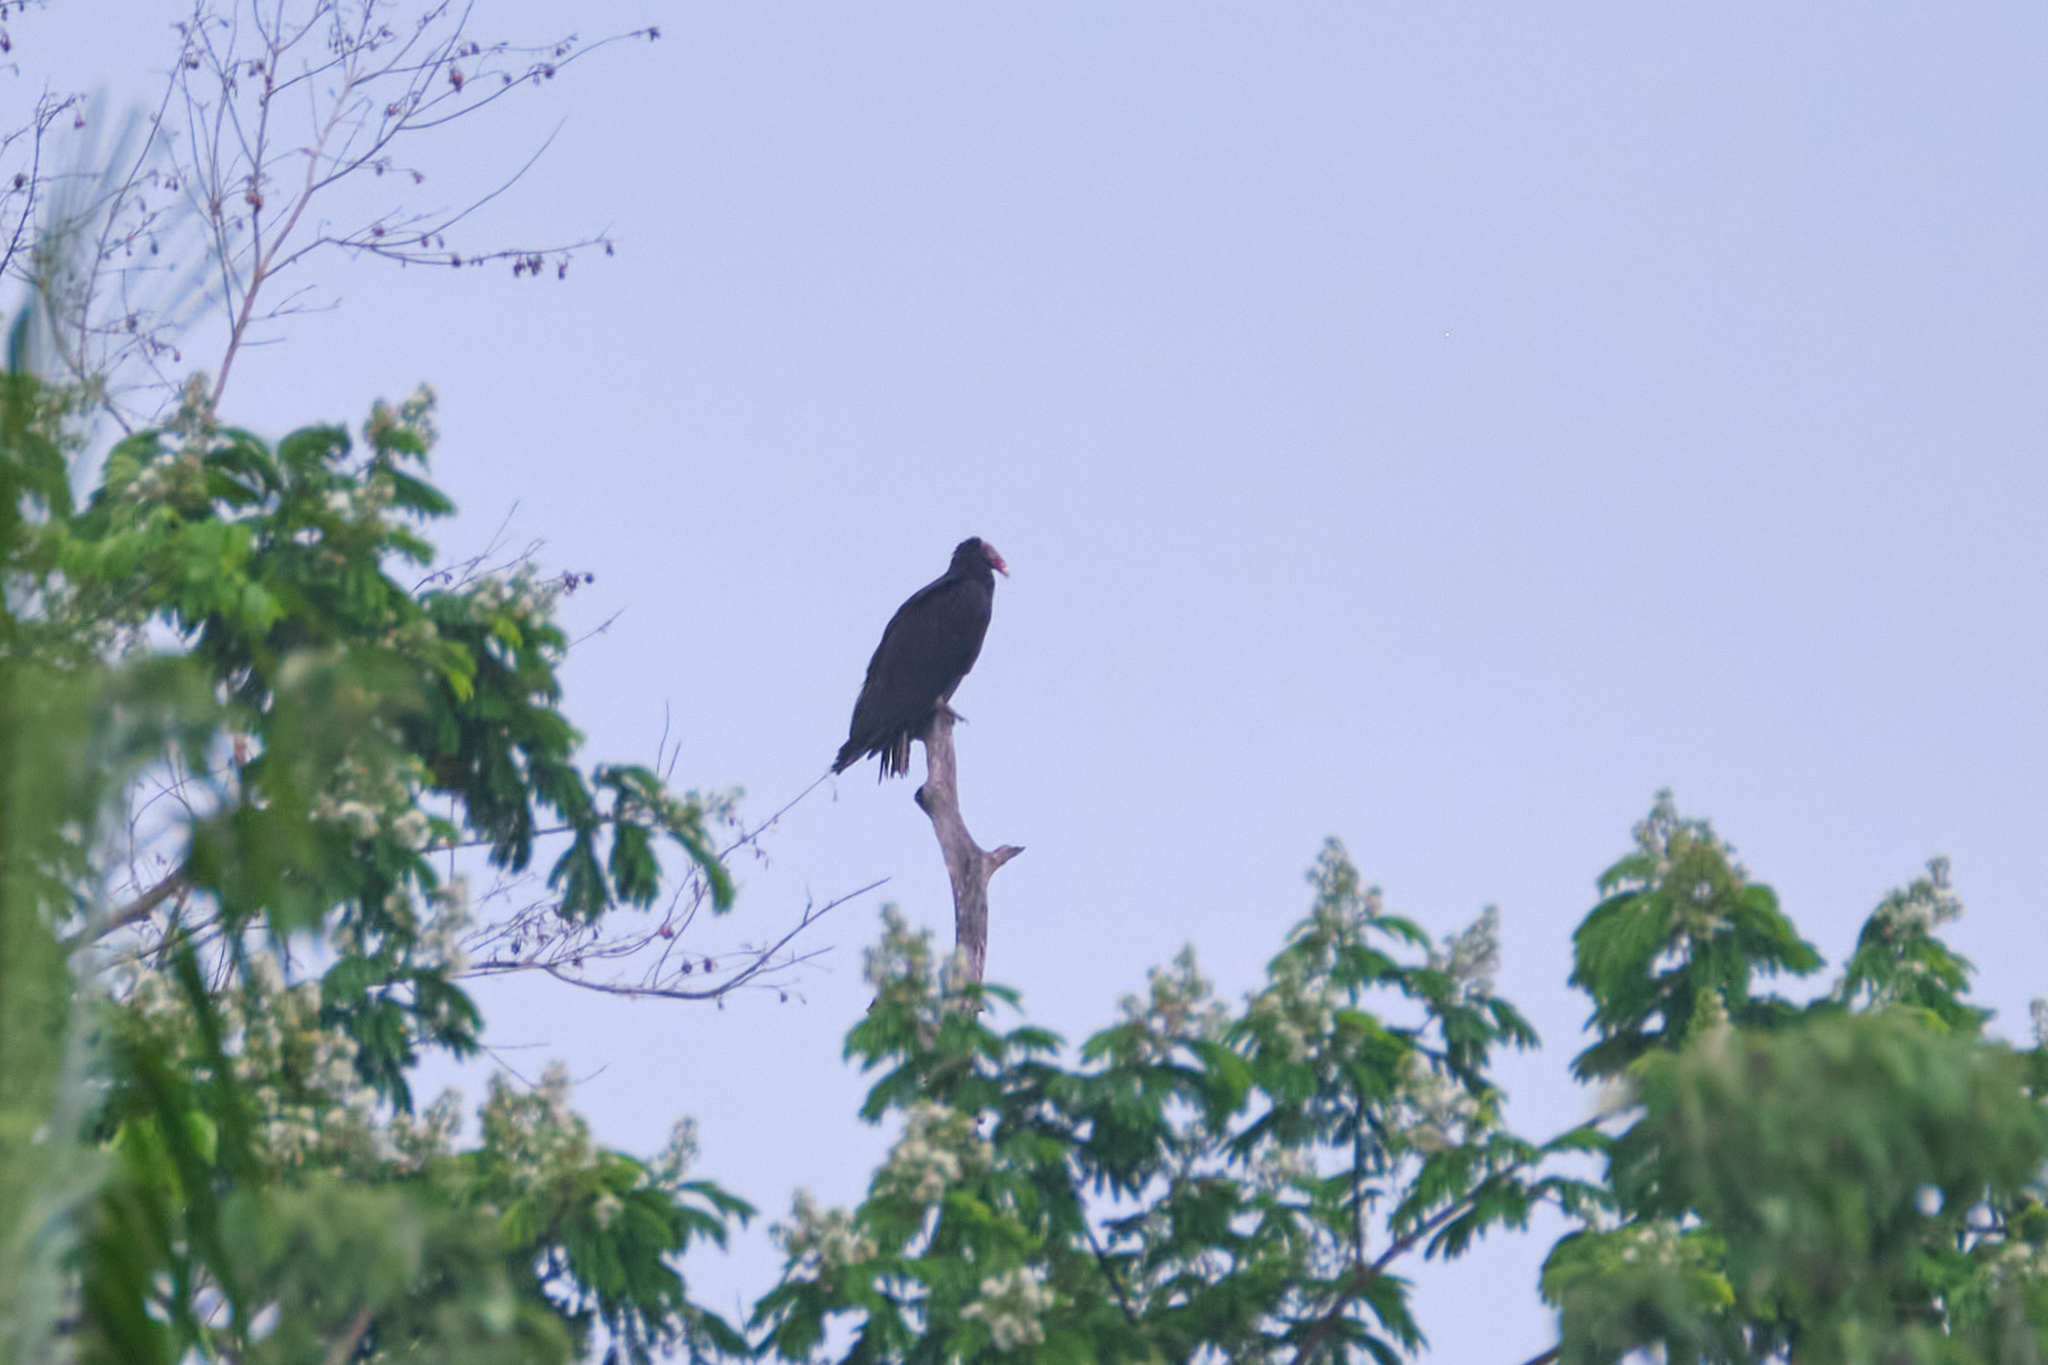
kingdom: Animalia
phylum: Chordata
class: Aves
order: Accipitriformes
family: Cathartidae
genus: Cathartes
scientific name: Cathartes aura
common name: Turkey vulture
